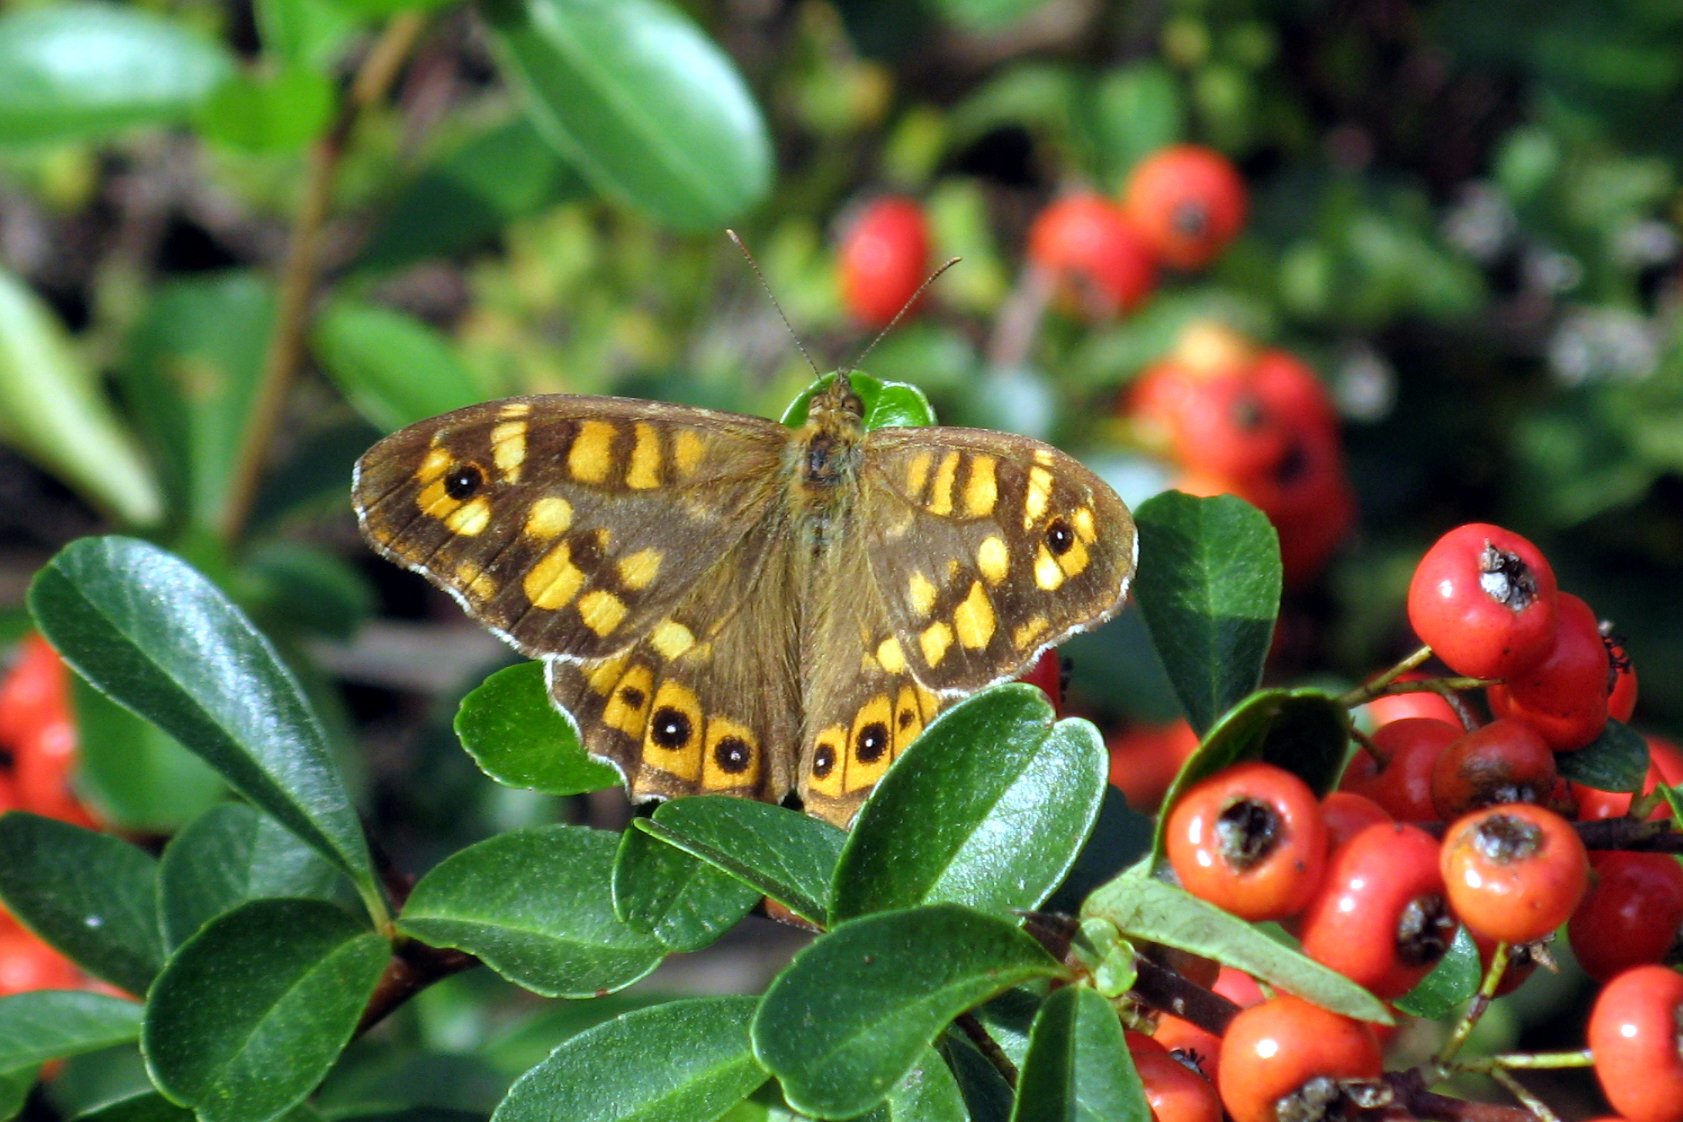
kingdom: Animalia
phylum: Arthropoda
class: Insecta
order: Lepidoptera
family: Nymphalidae
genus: Pararge
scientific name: Pararge aegeria
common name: Speckled wood
